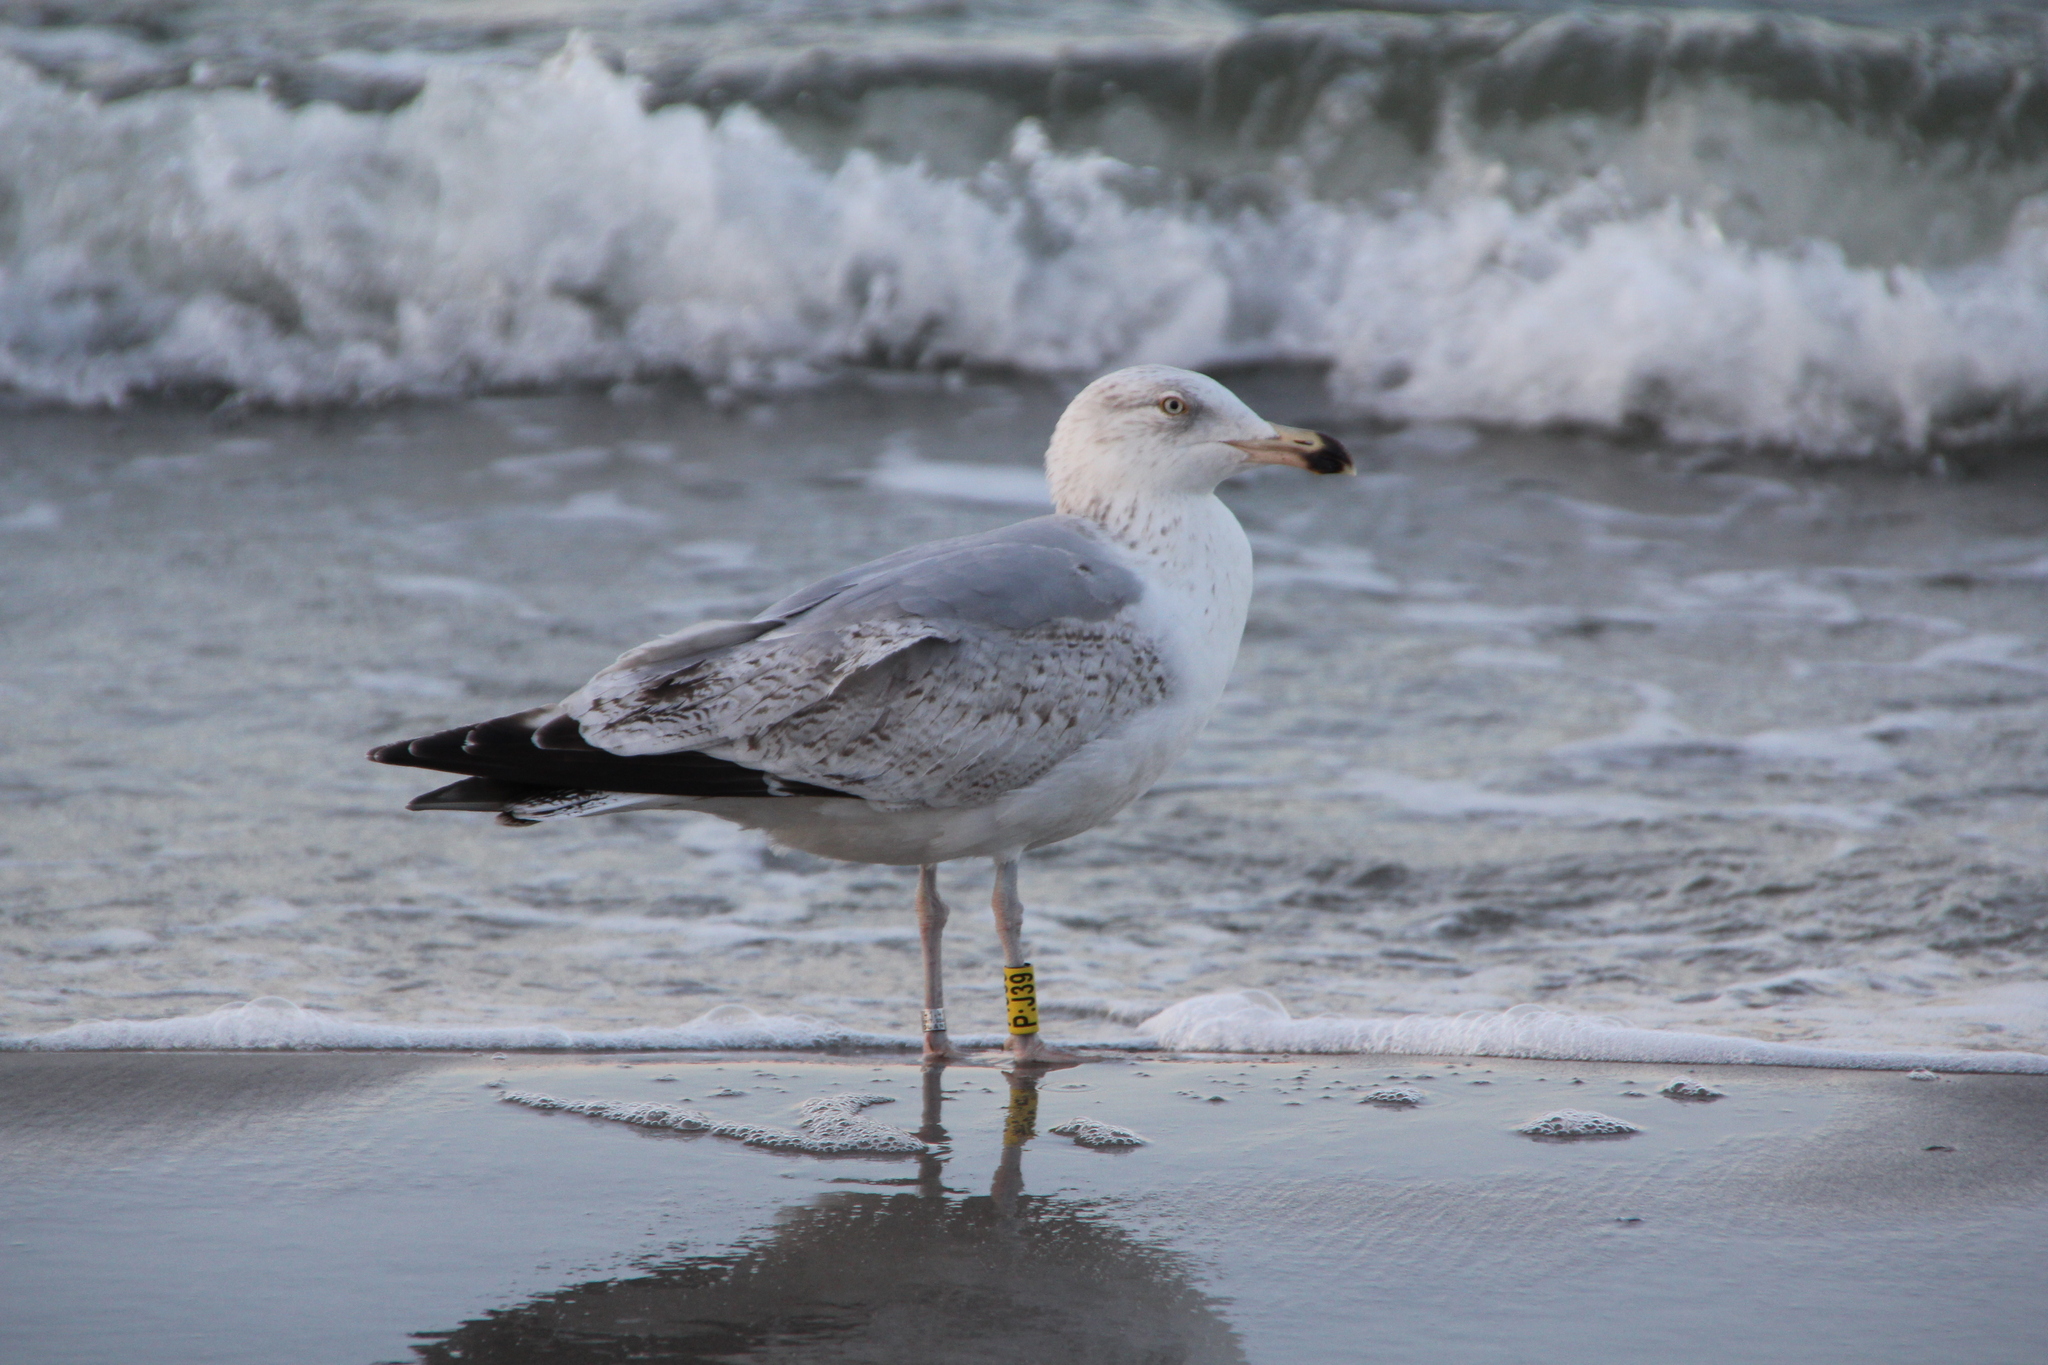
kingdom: Animalia
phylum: Chordata
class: Aves
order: Charadriiformes
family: Laridae
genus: Larus
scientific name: Larus argentatus
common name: Herring gull
